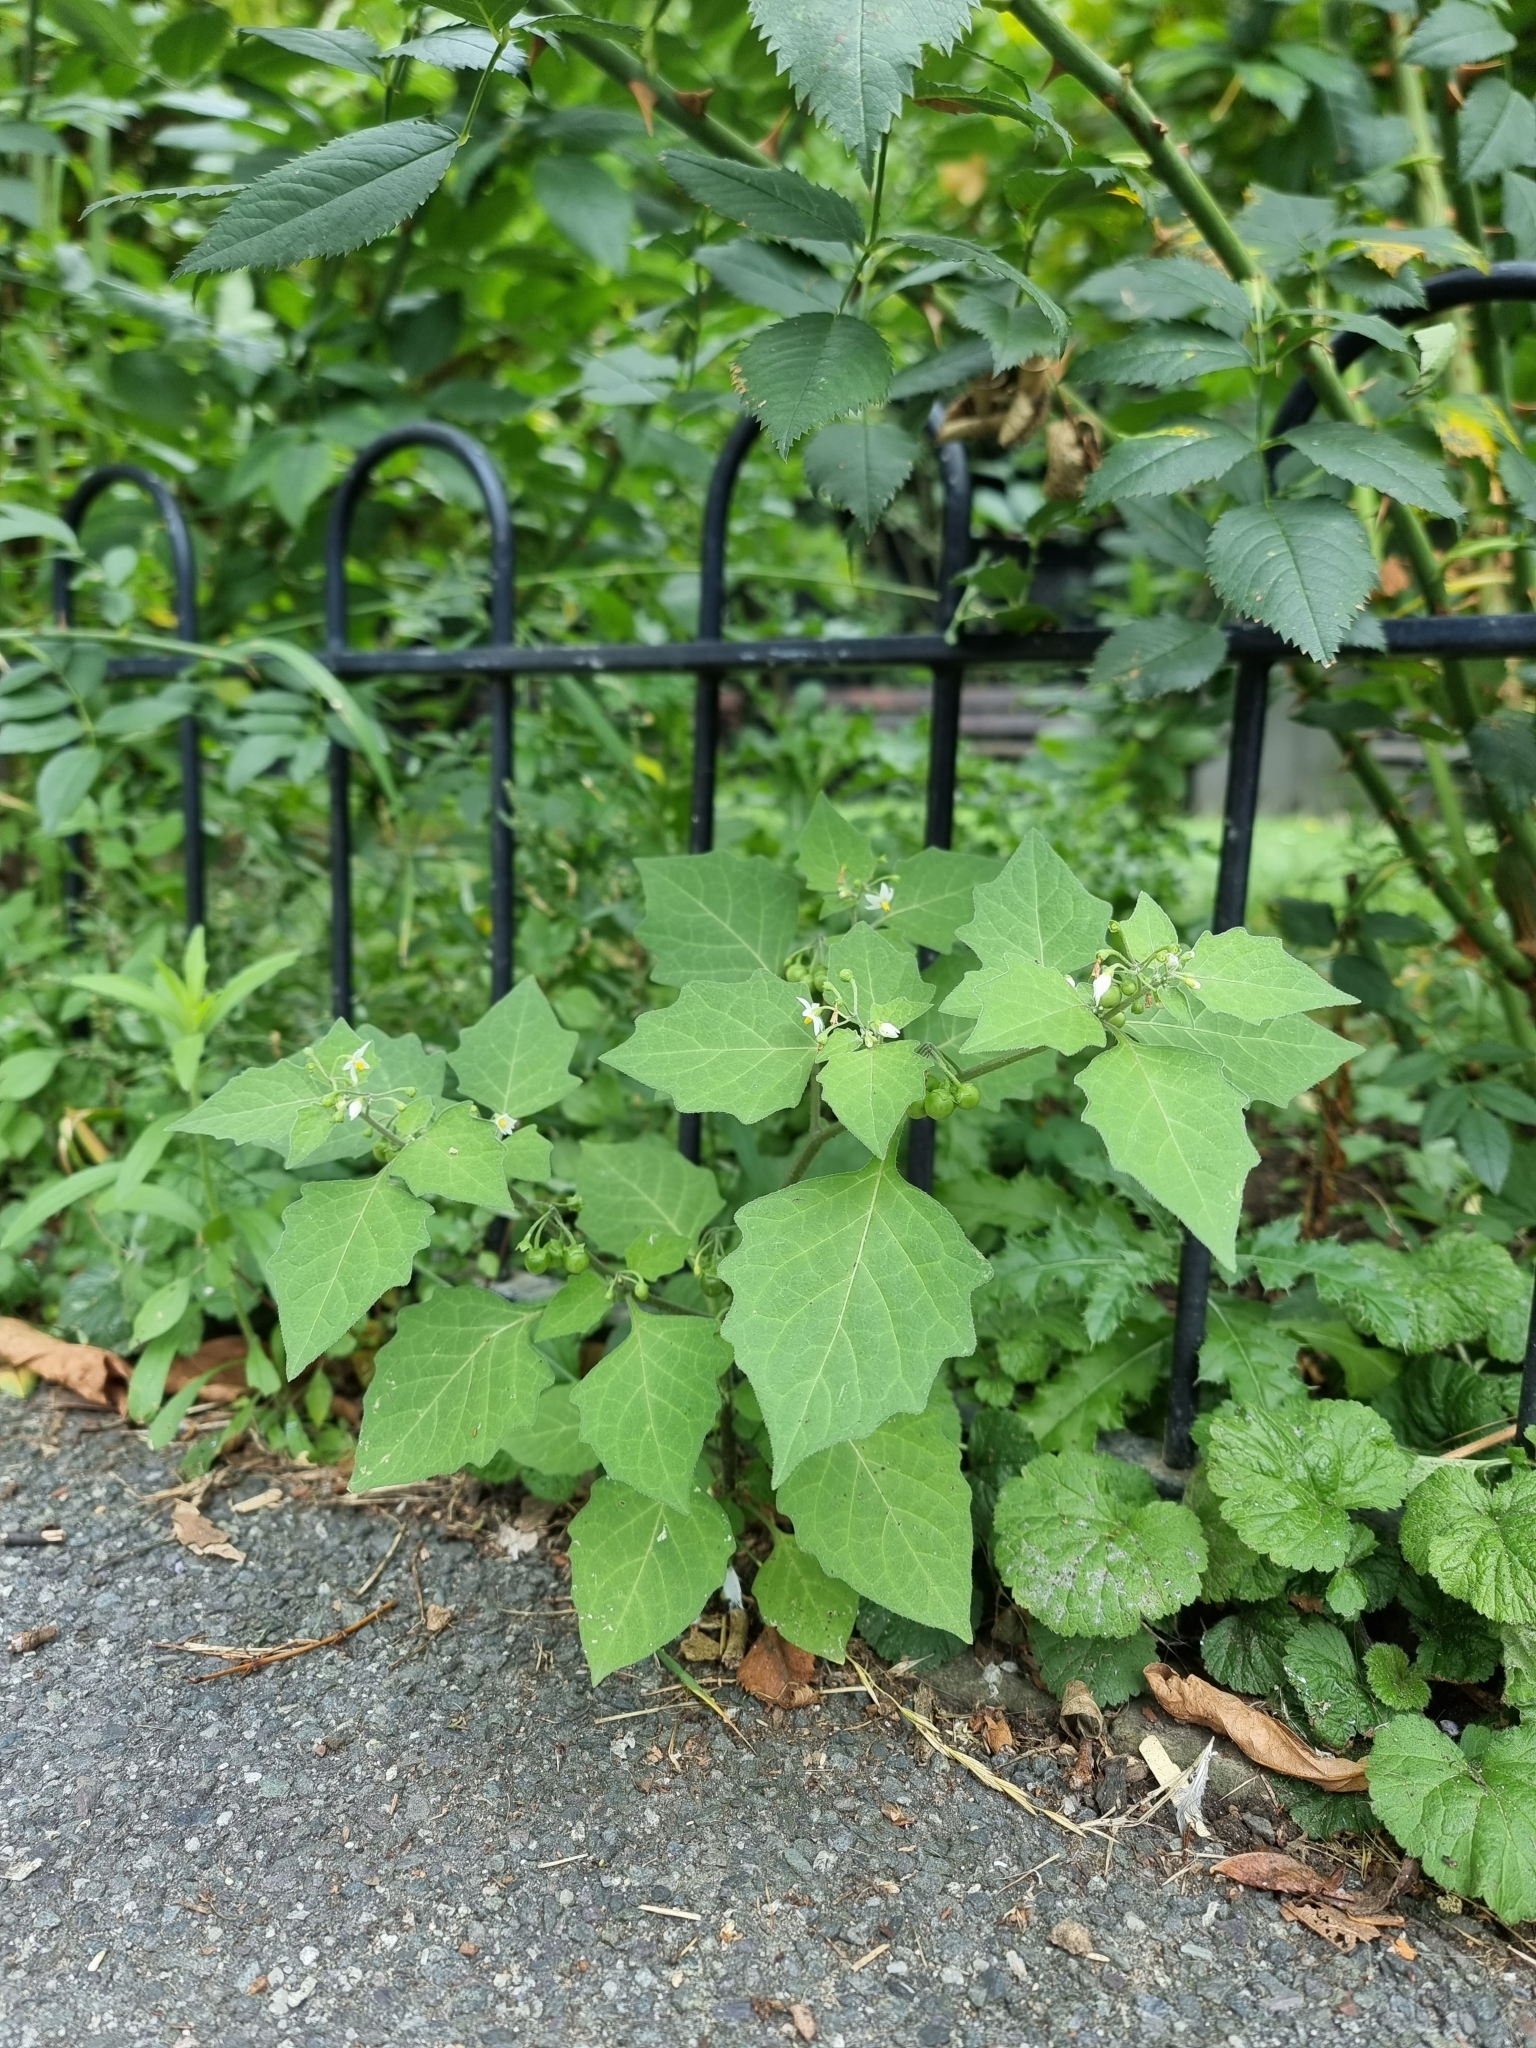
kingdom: Plantae
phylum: Tracheophyta
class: Magnoliopsida
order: Solanales
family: Solanaceae
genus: Solanum
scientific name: Solanum nigrum
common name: Black nightshade
